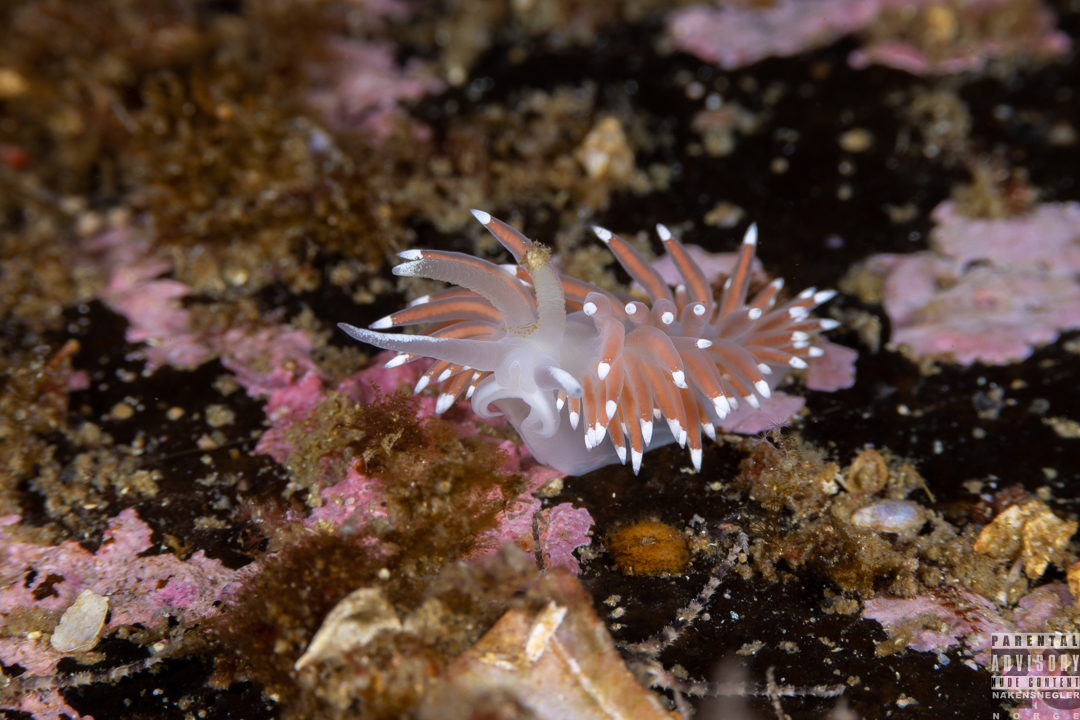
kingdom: Animalia
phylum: Mollusca
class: Gastropoda
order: Nudibranchia
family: Coryphellidae
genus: Coryphella
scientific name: Coryphella browni
